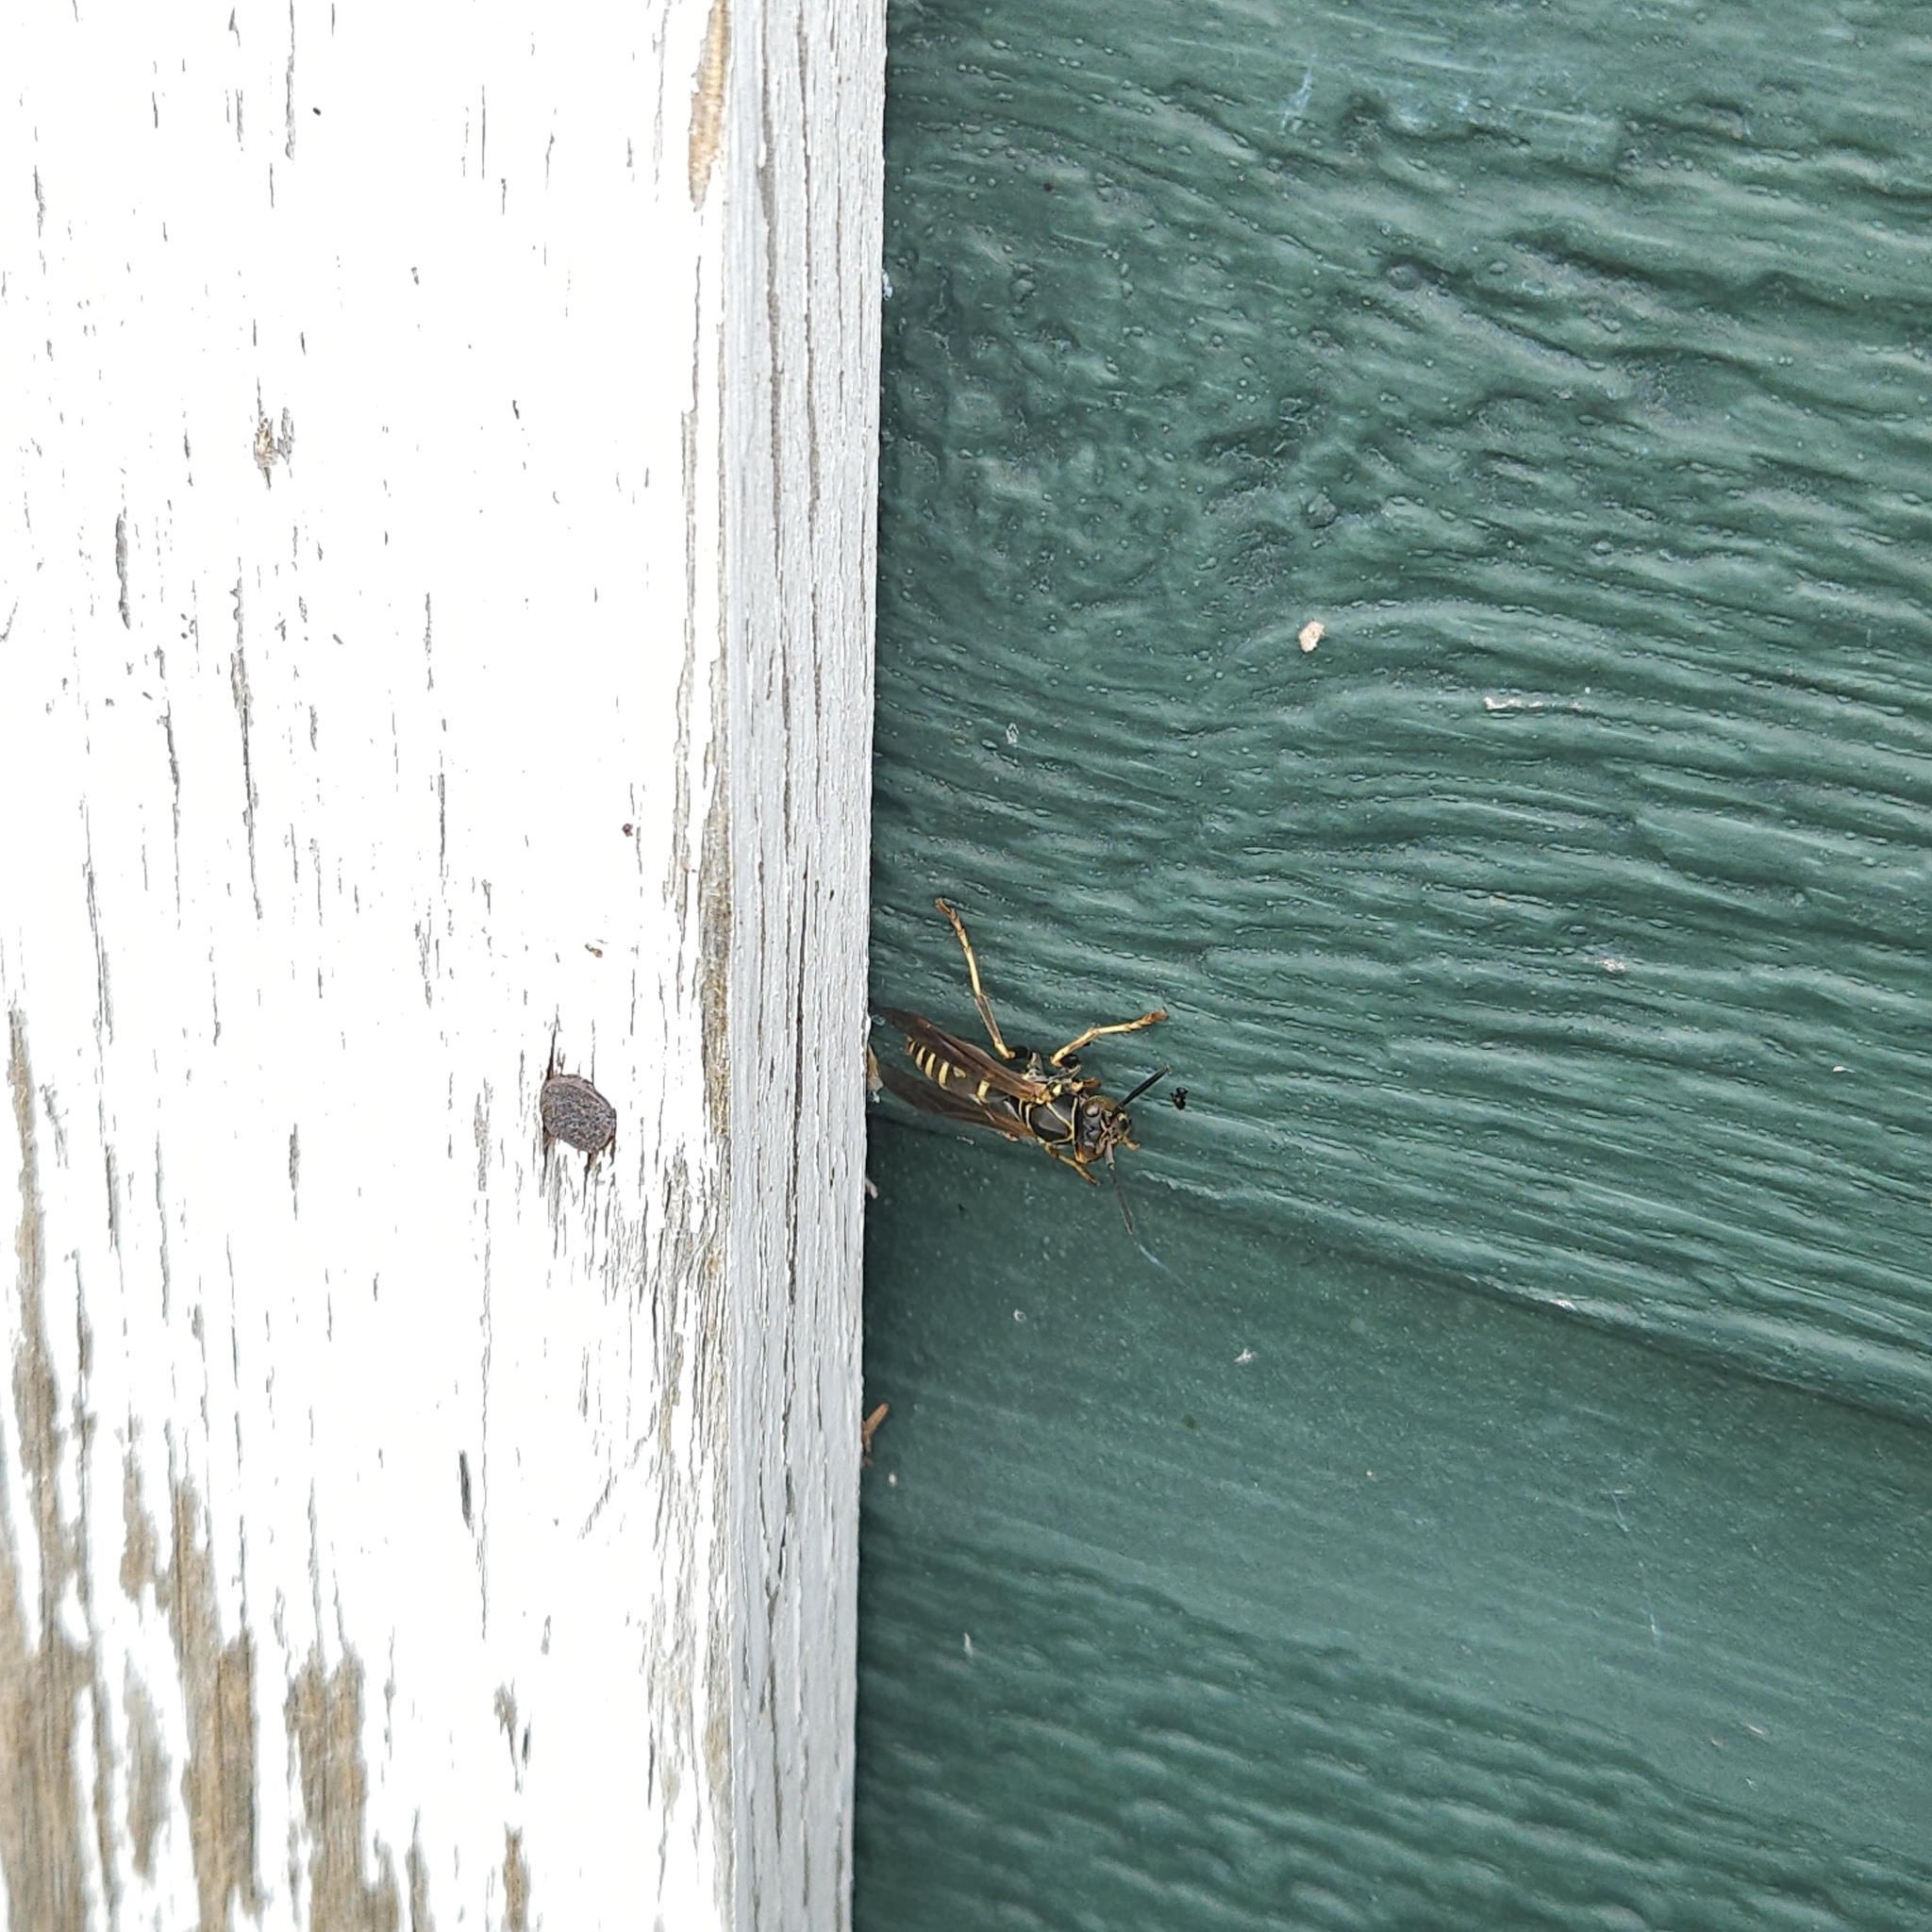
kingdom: Animalia
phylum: Arthropoda
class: Insecta
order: Hymenoptera
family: Eumenidae
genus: Polistes
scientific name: Polistes fuscatus
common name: Dark paper wasp
